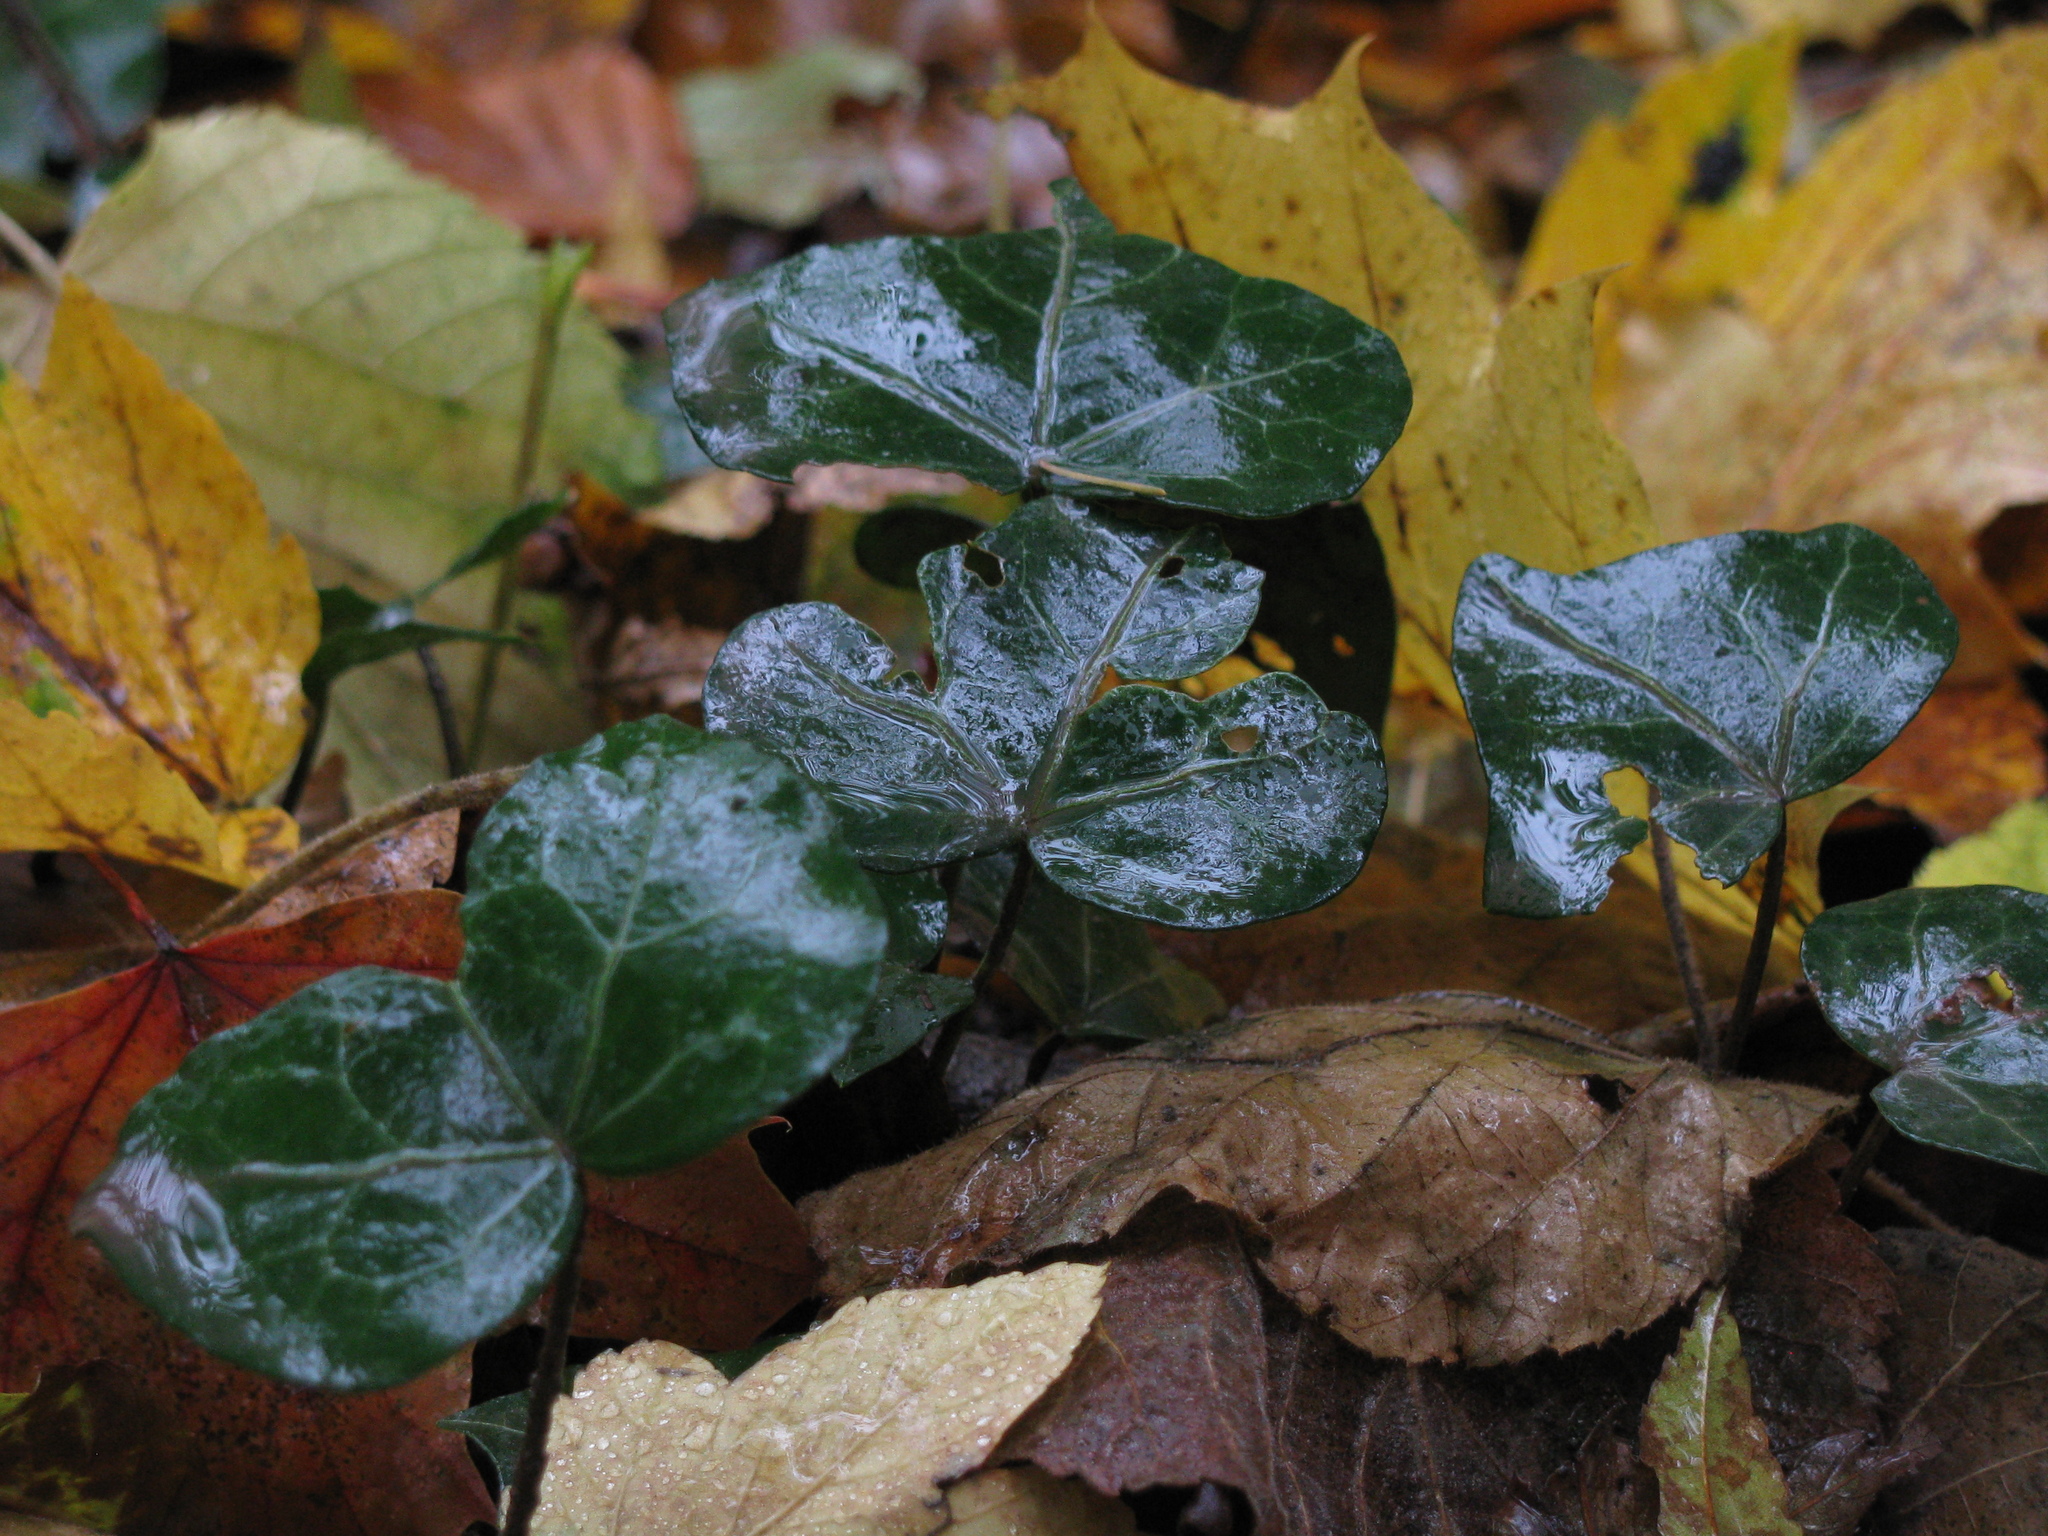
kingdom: Plantae
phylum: Tracheophyta
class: Magnoliopsida
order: Apiales
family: Araliaceae
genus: Hedera
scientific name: Hedera helix
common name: Ivy
